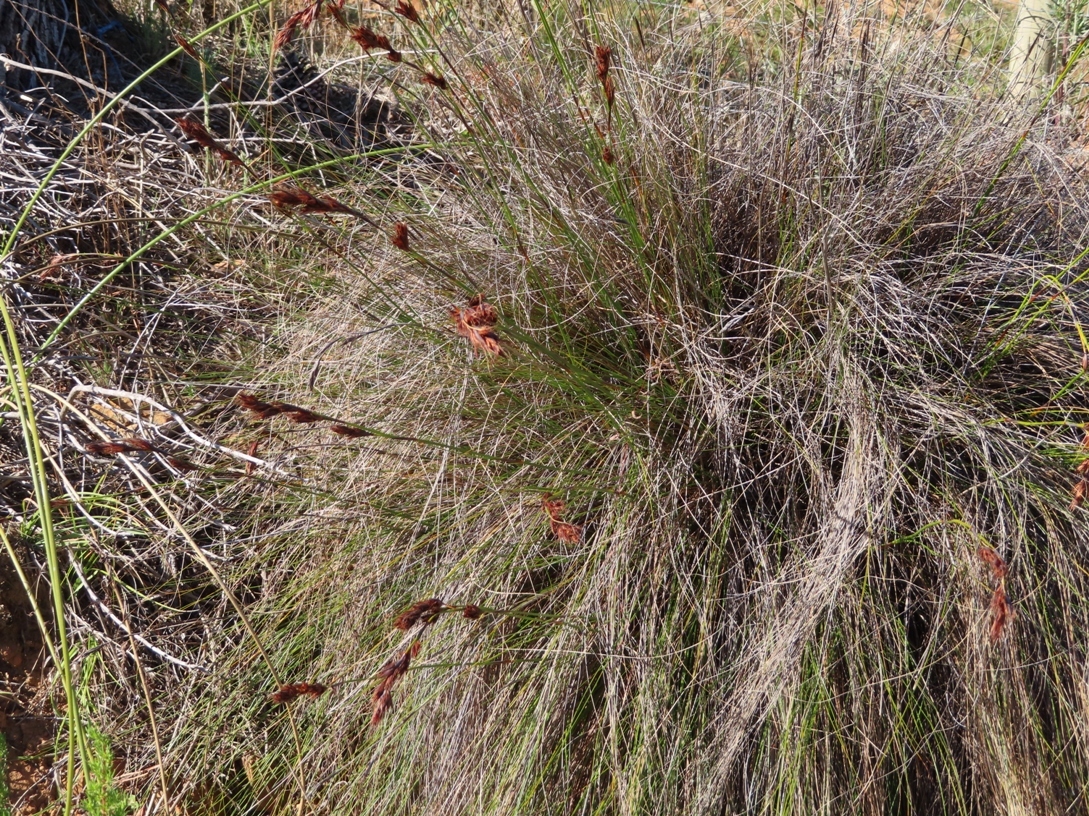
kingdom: Plantae
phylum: Tracheophyta
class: Liliopsida
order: Poales
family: Cyperaceae
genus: Tetraria
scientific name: Tetraria ustulata
